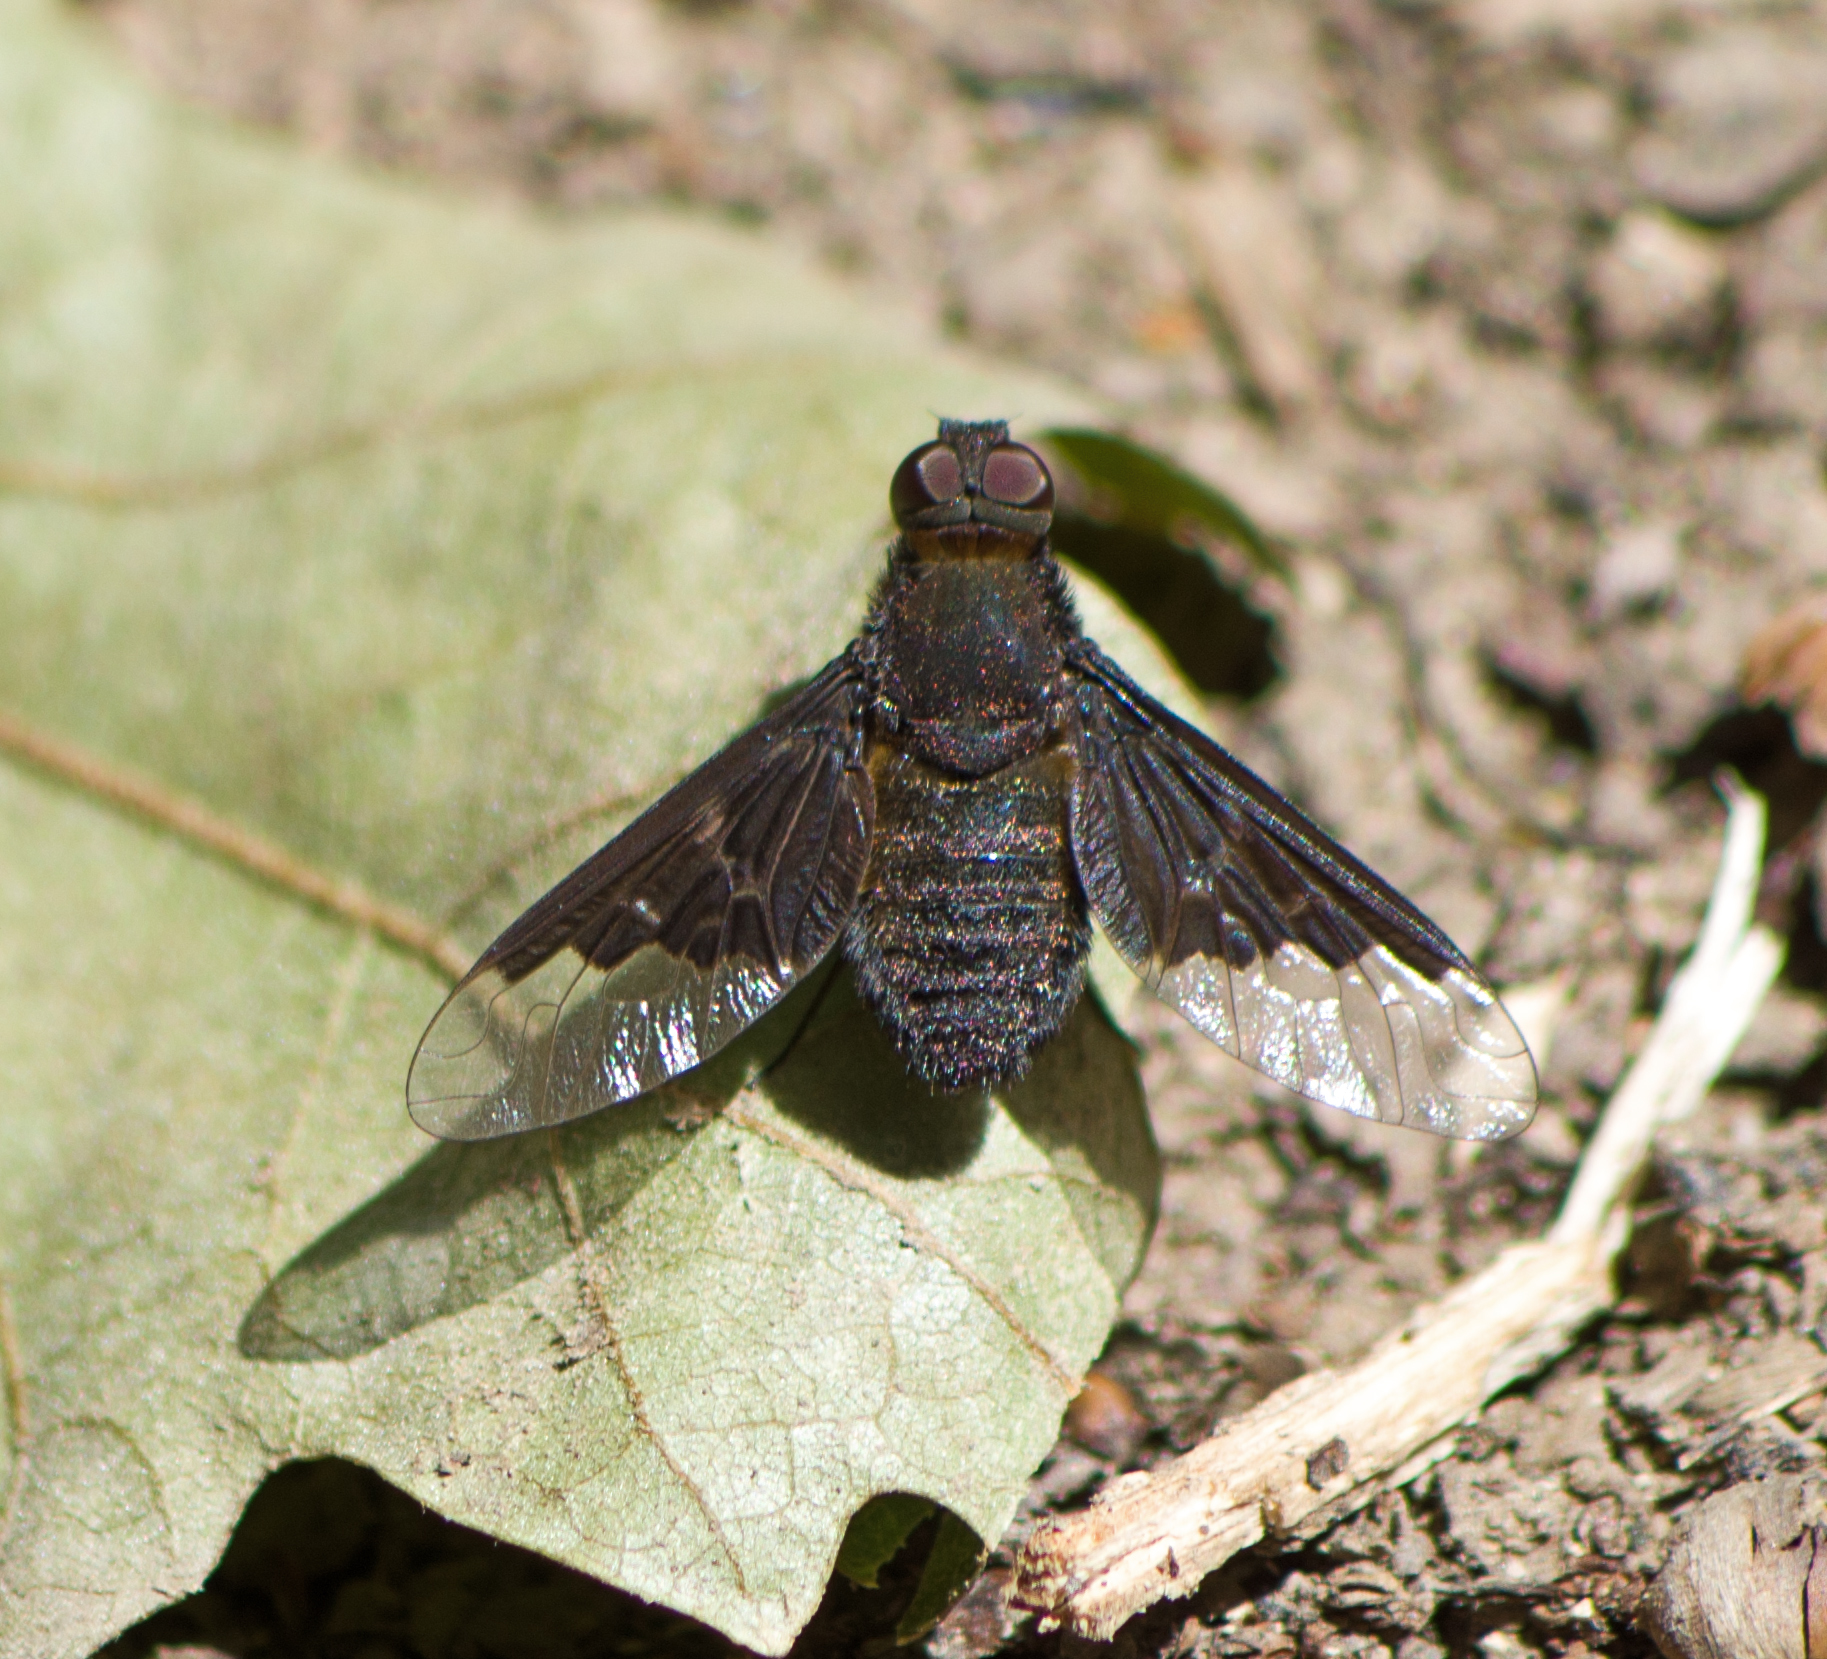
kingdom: Animalia
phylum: Arthropoda
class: Insecta
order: Diptera
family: Bombyliidae
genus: Hemipenthes
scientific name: Hemipenthes morio
